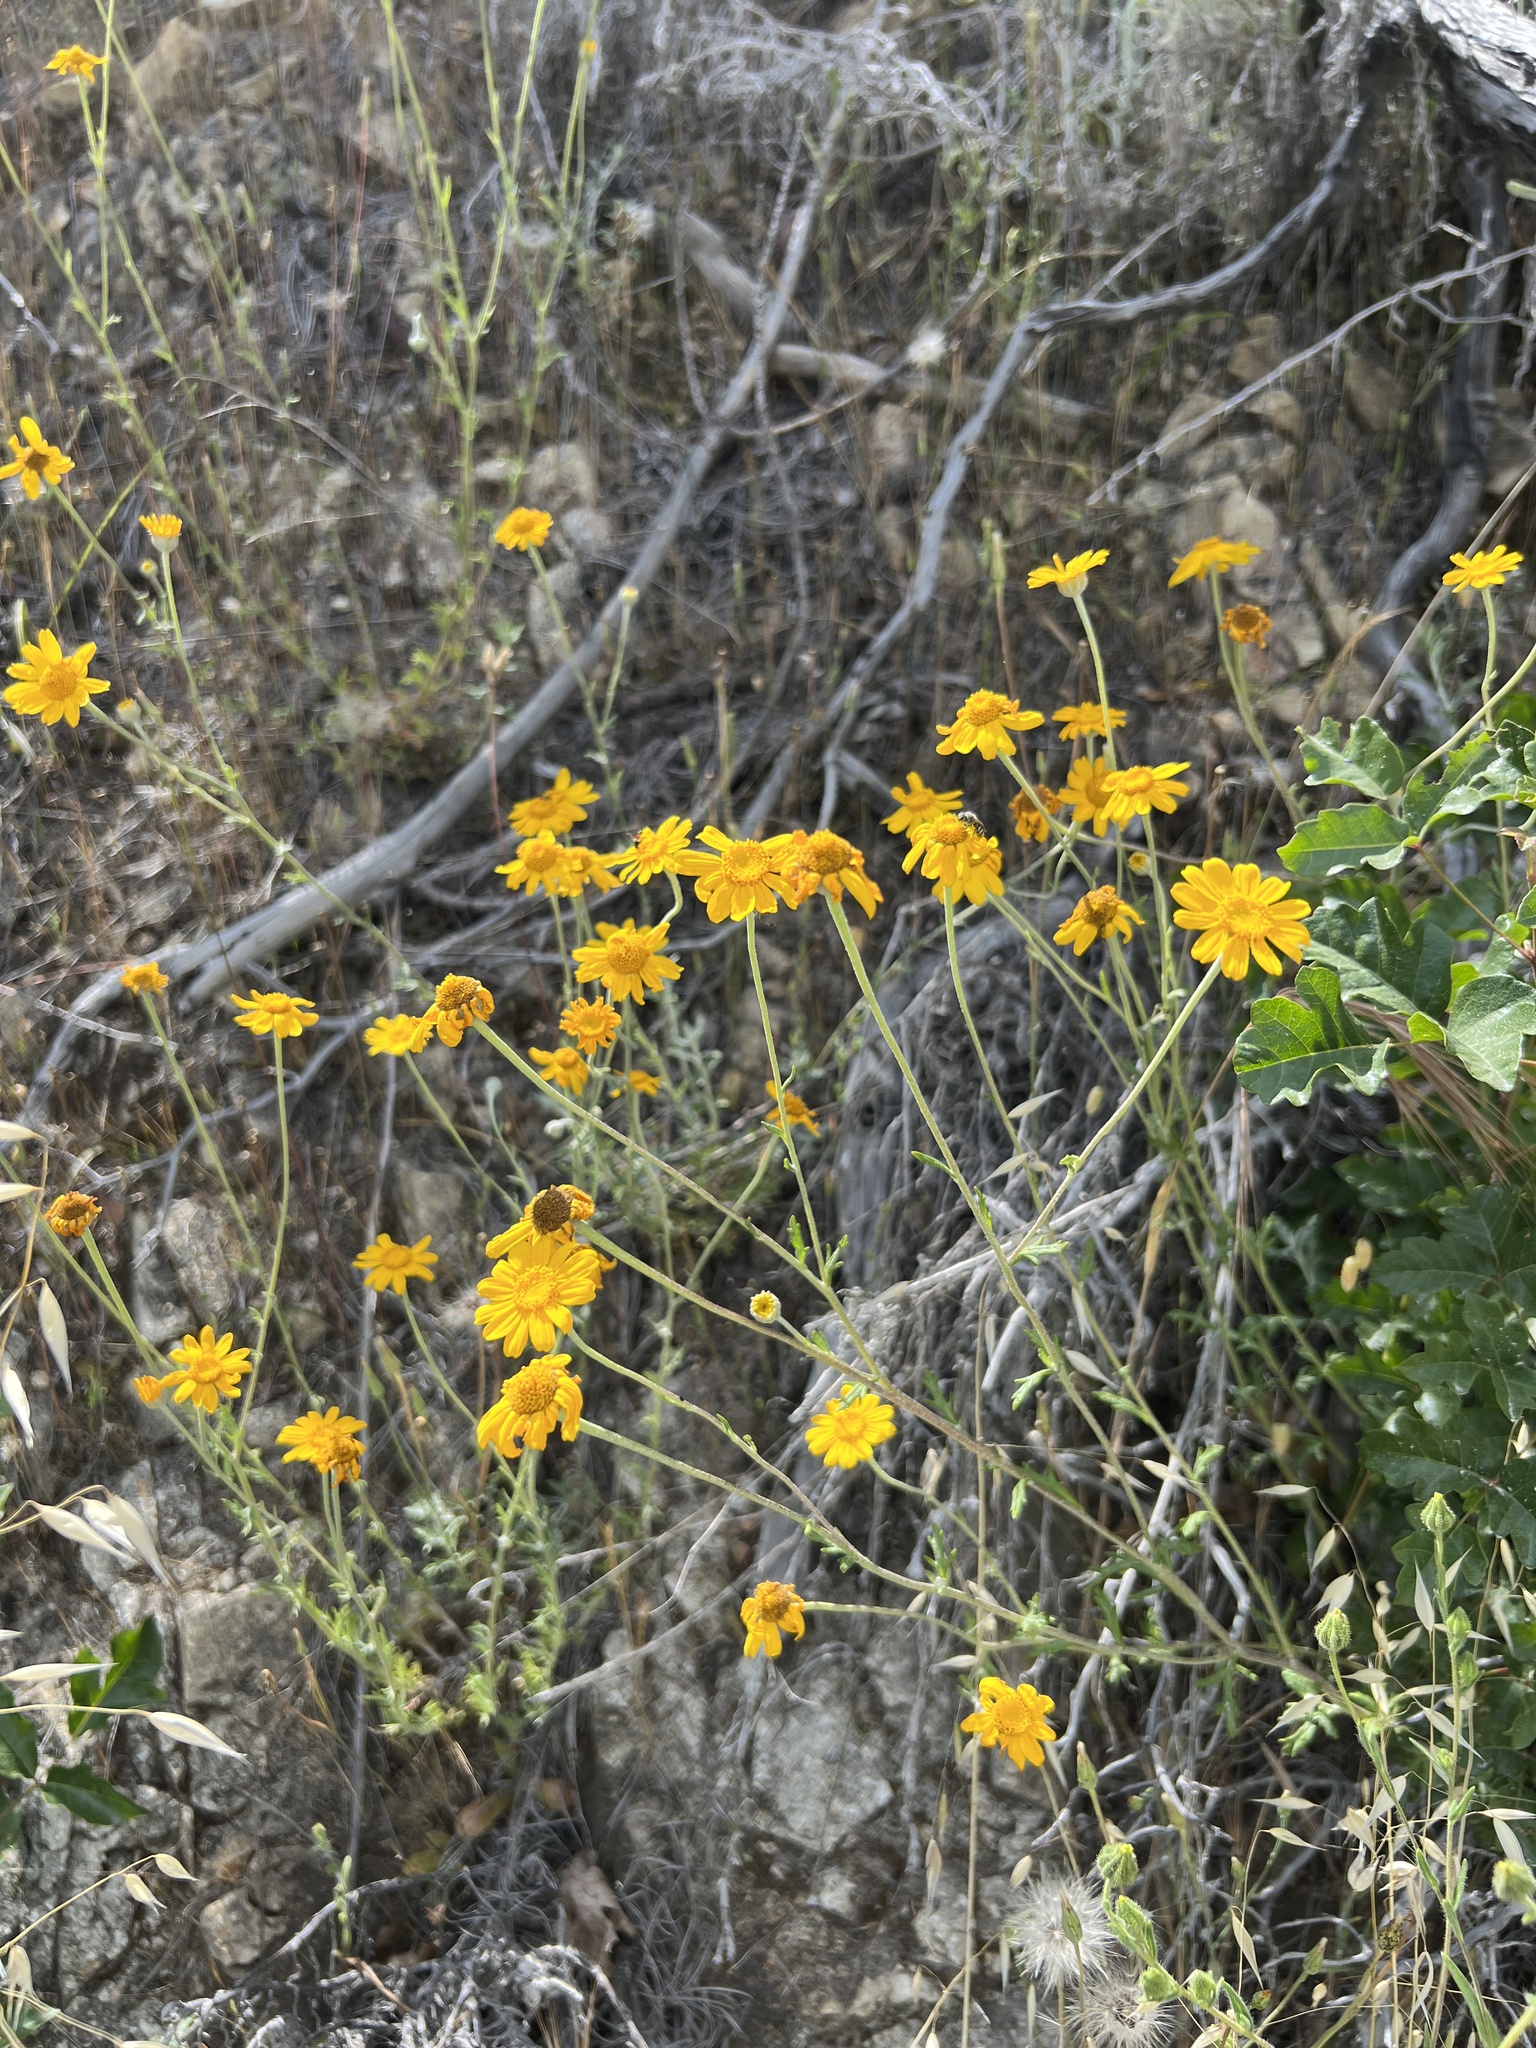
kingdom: Plantae
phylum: Tracheophyta
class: Magnoliopsida
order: Asterales
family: Asteraceae
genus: Eriophyllum
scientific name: Eriophyllum lanatum
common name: Common woolly-sunflower
